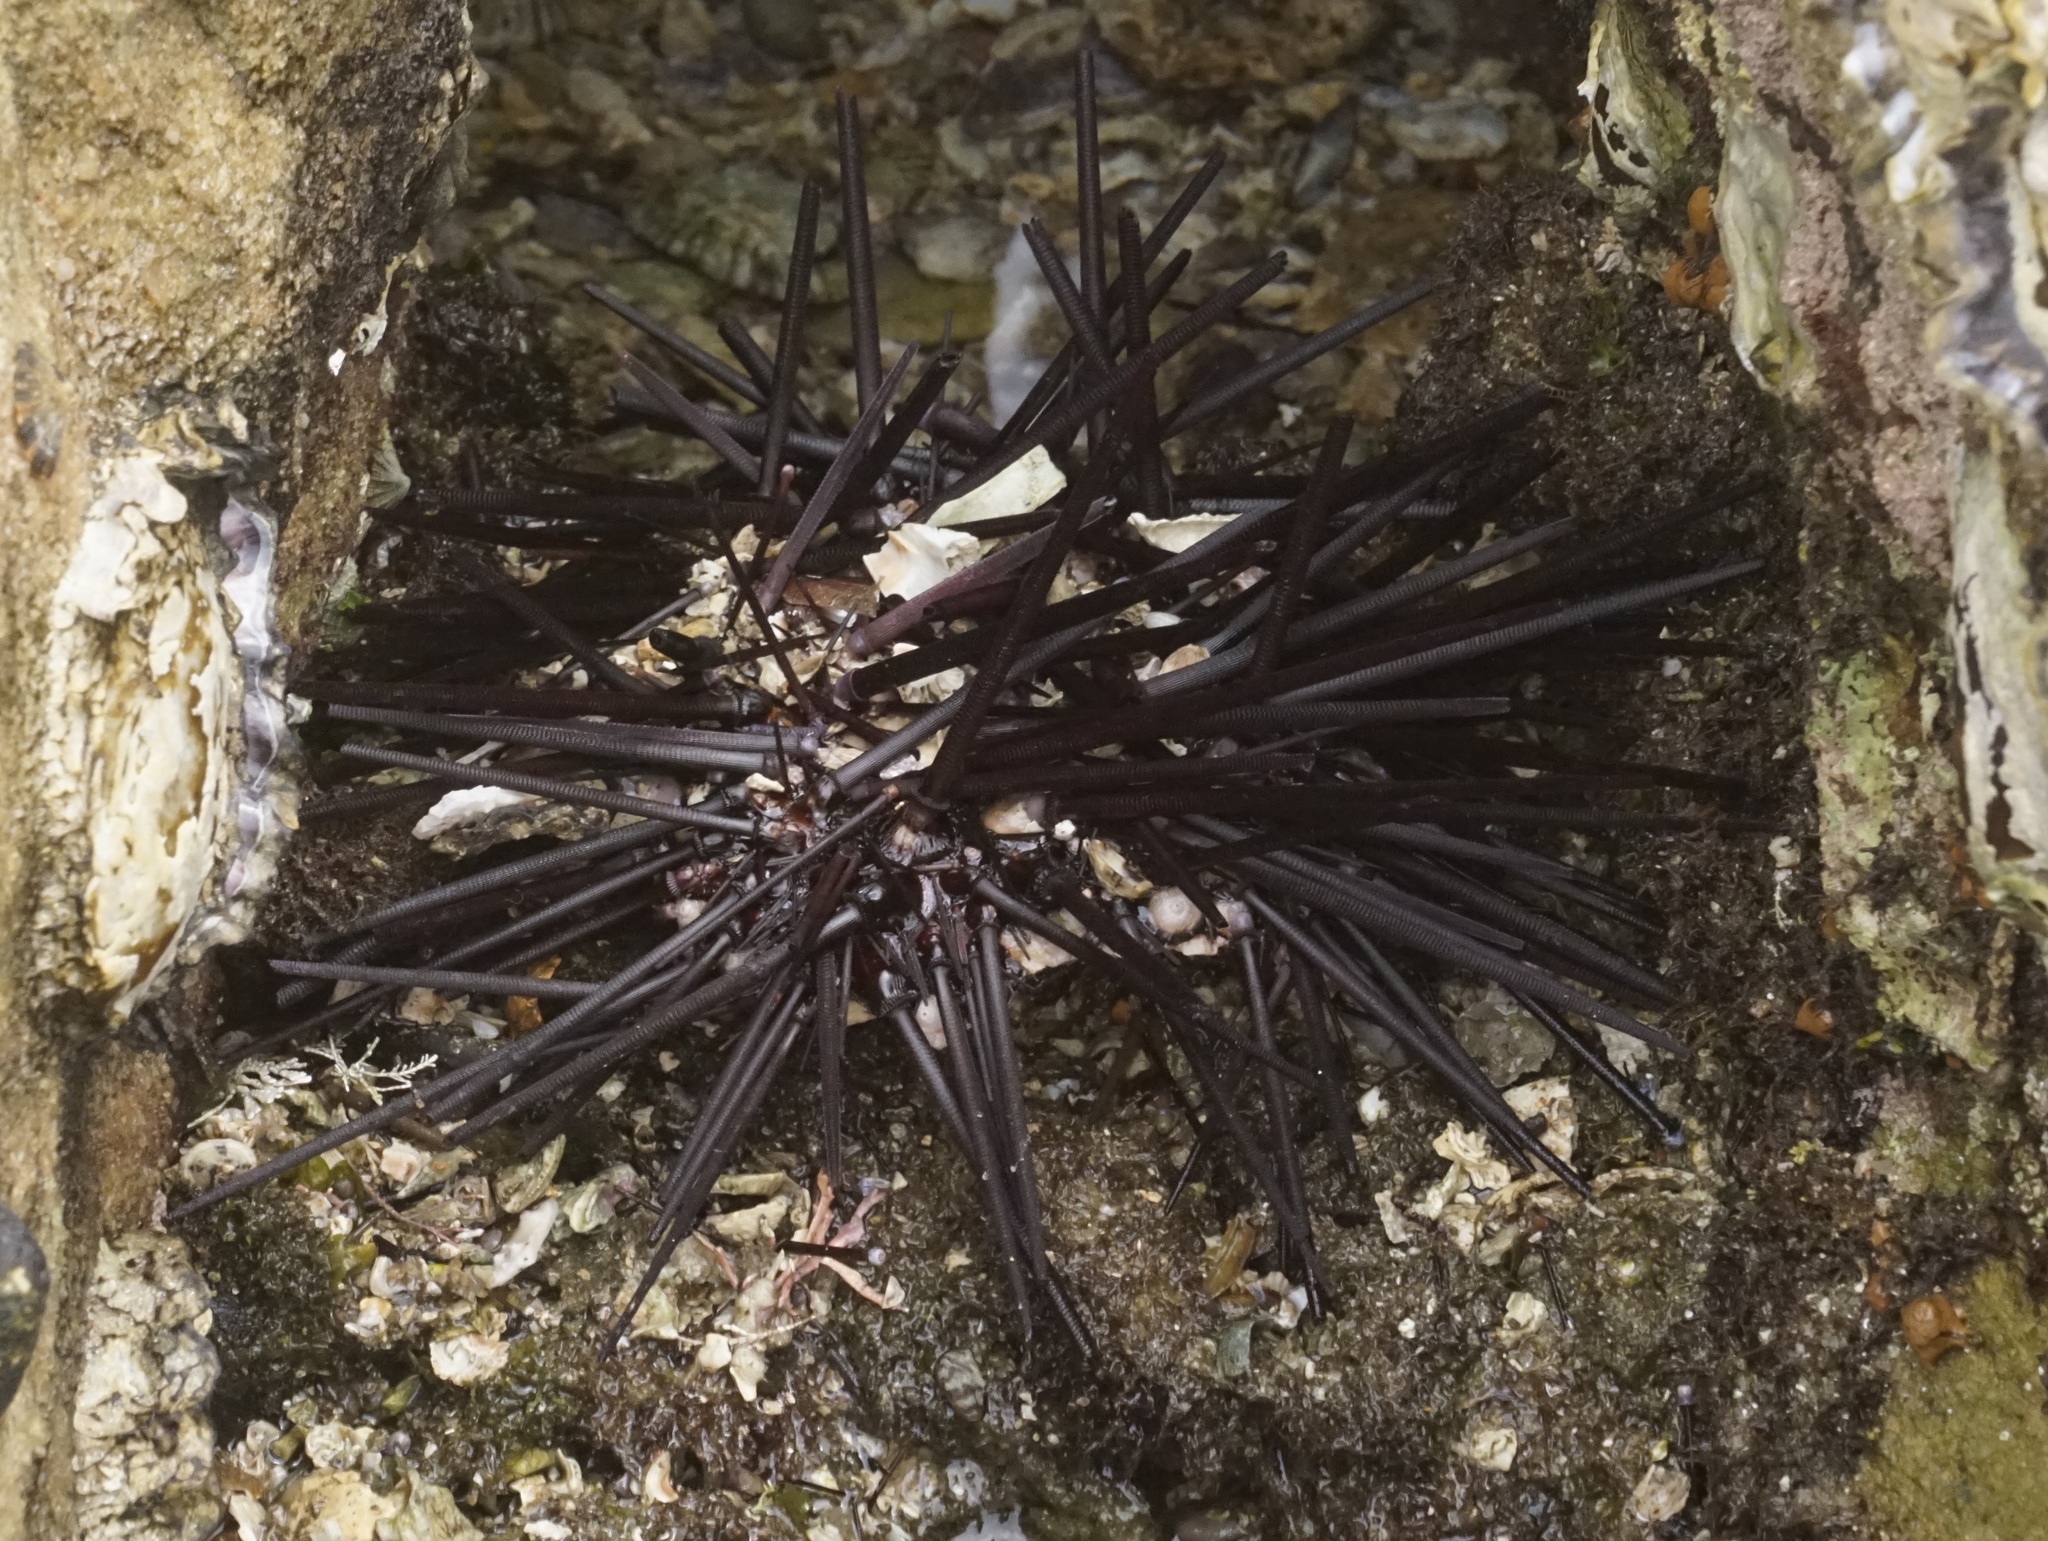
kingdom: Animalia
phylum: Echinodermata
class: Echinoidea
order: Diadematoida
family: Diadematidae
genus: Centrostephanus
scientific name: Centrostephanus rodgersii
